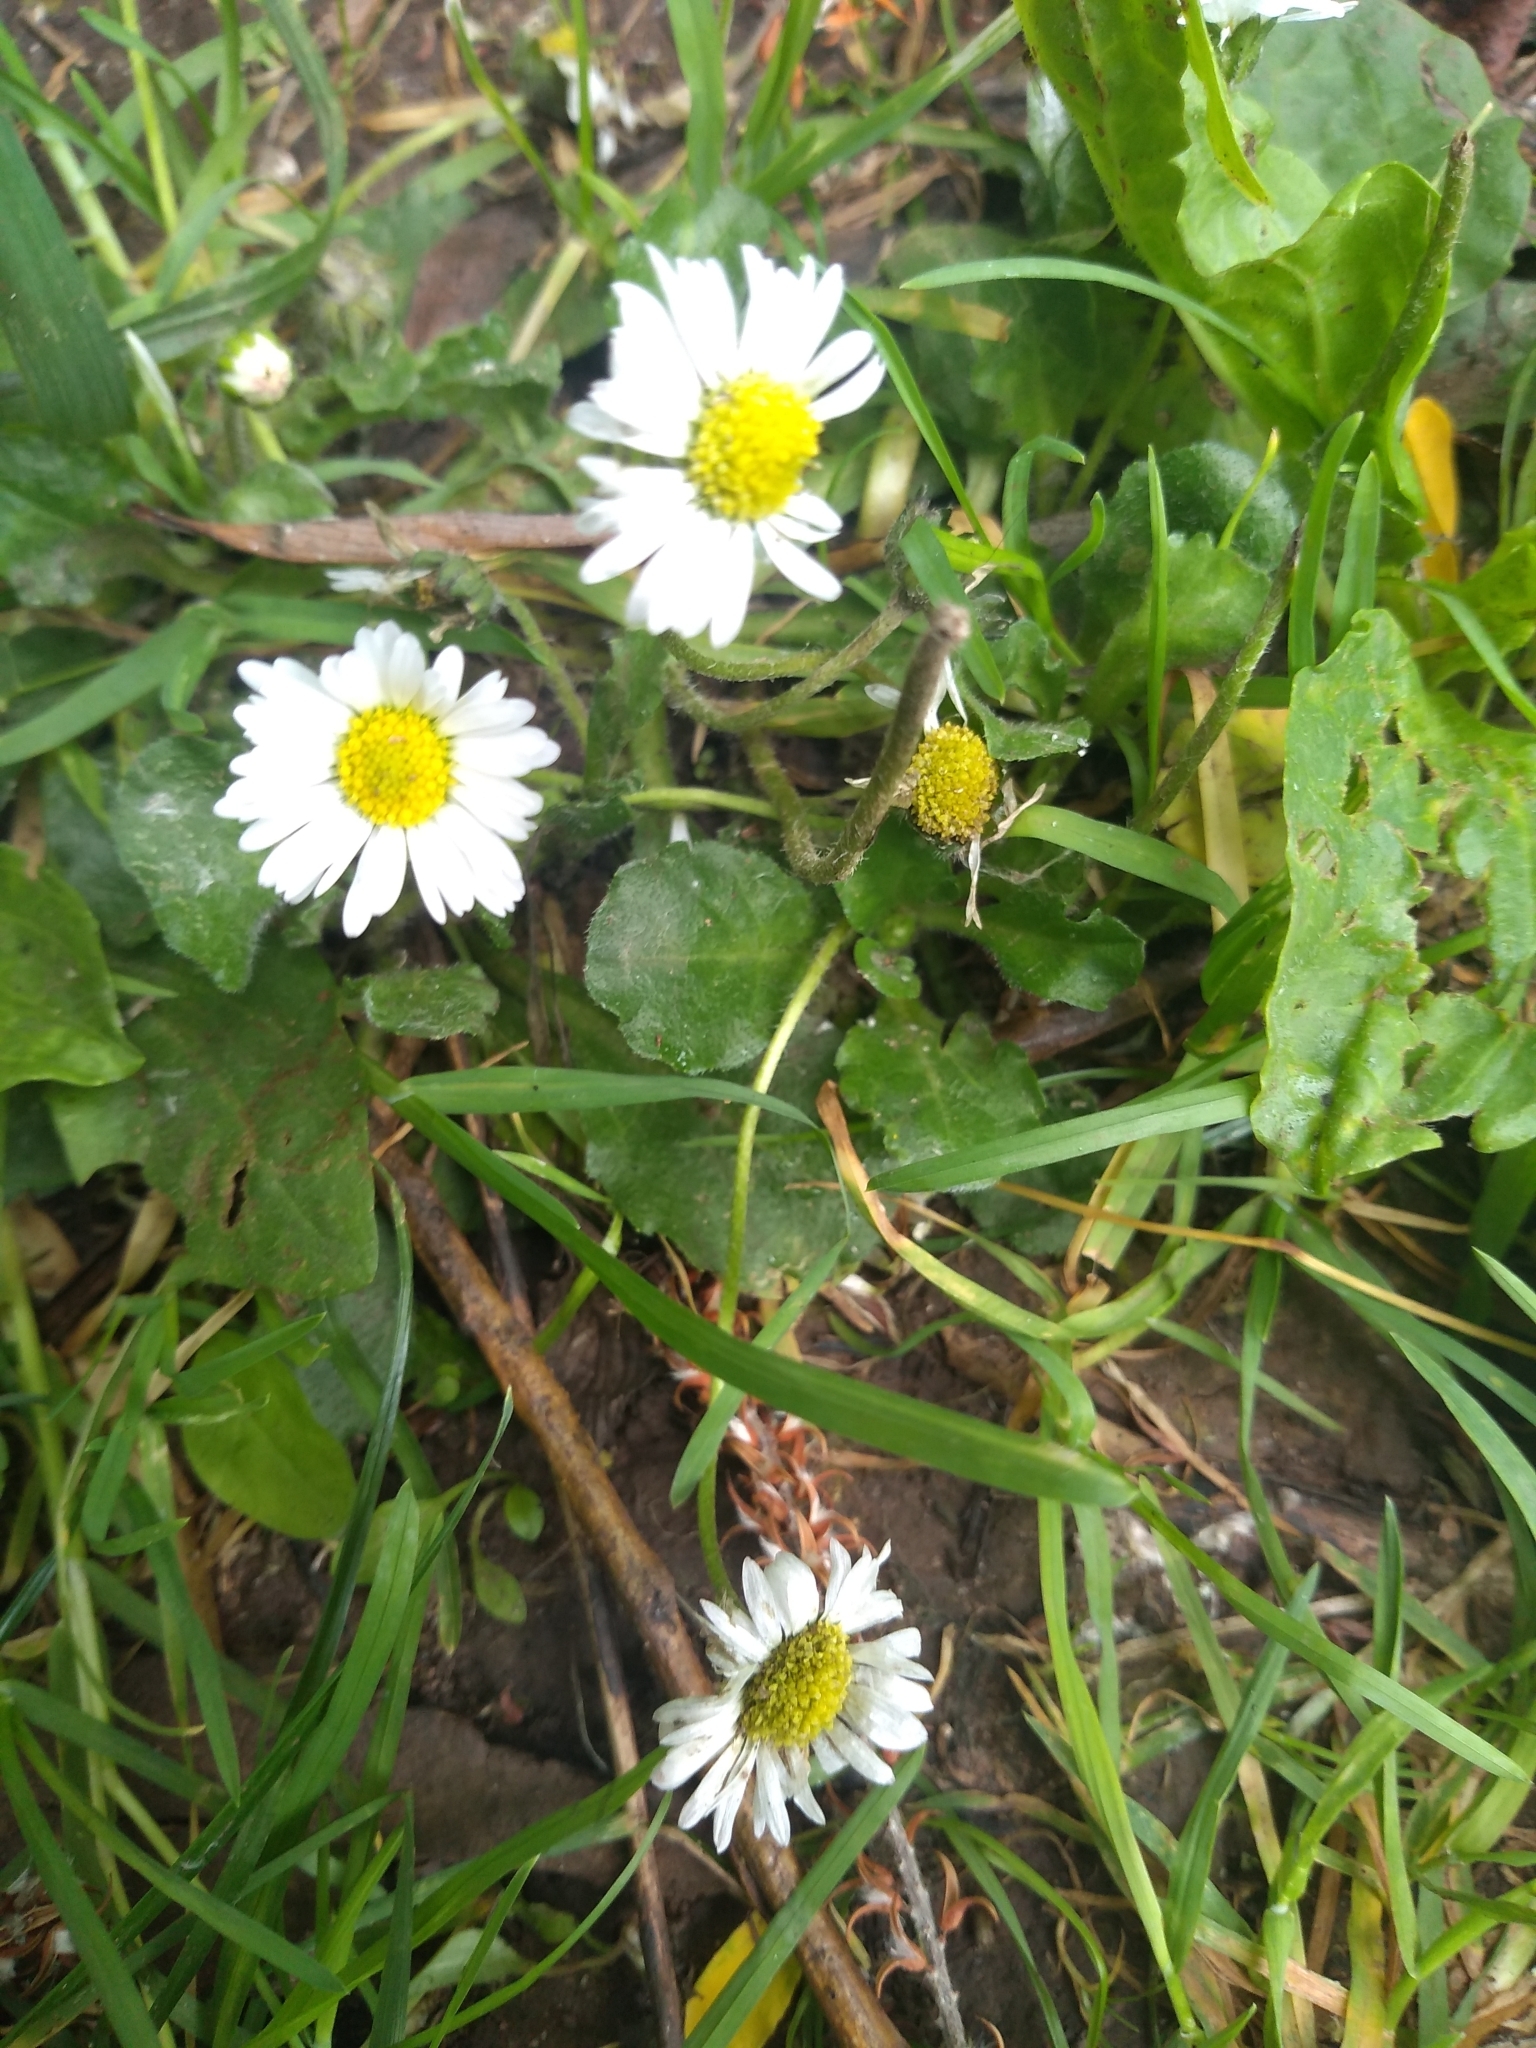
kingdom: Plantae
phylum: Tracheophyta
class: Magnoliopsida
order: Asterales
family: Asteraceae
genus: Bellis
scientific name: Bellis perennis
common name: Lawndaisy
